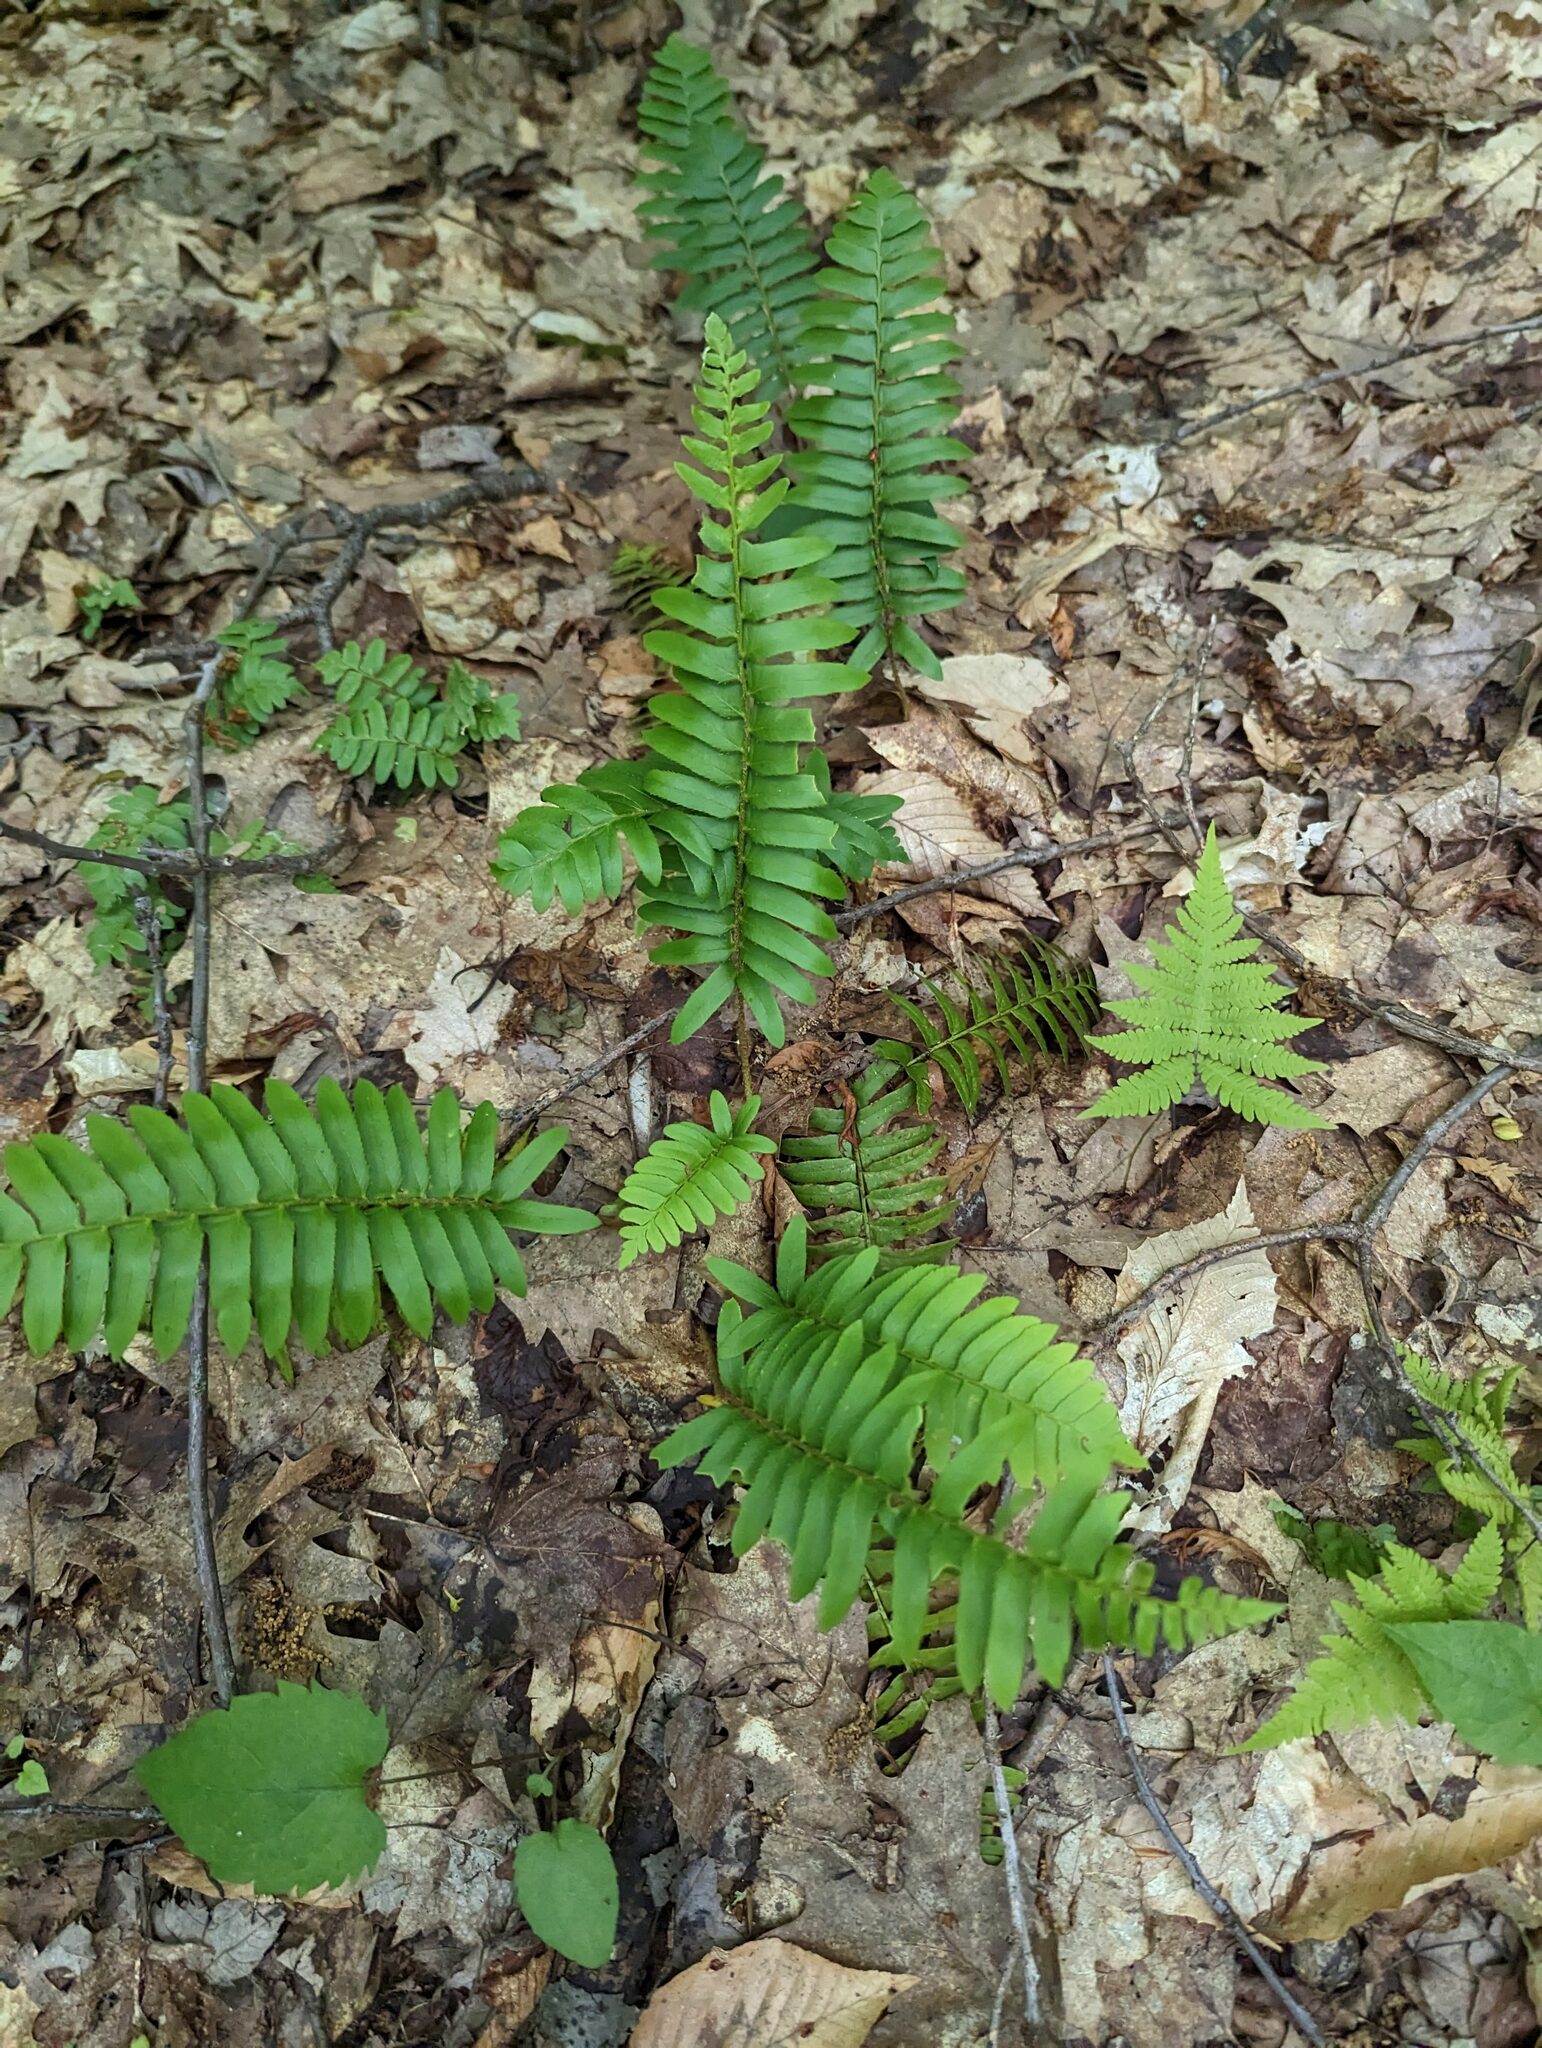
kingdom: Plantae
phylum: Tracheophyta
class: Polypodiopsida
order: Polypodiales
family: Dryopteridaceae
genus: Polystichum
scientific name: Polystichum acrostichoides
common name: Christmas fern
